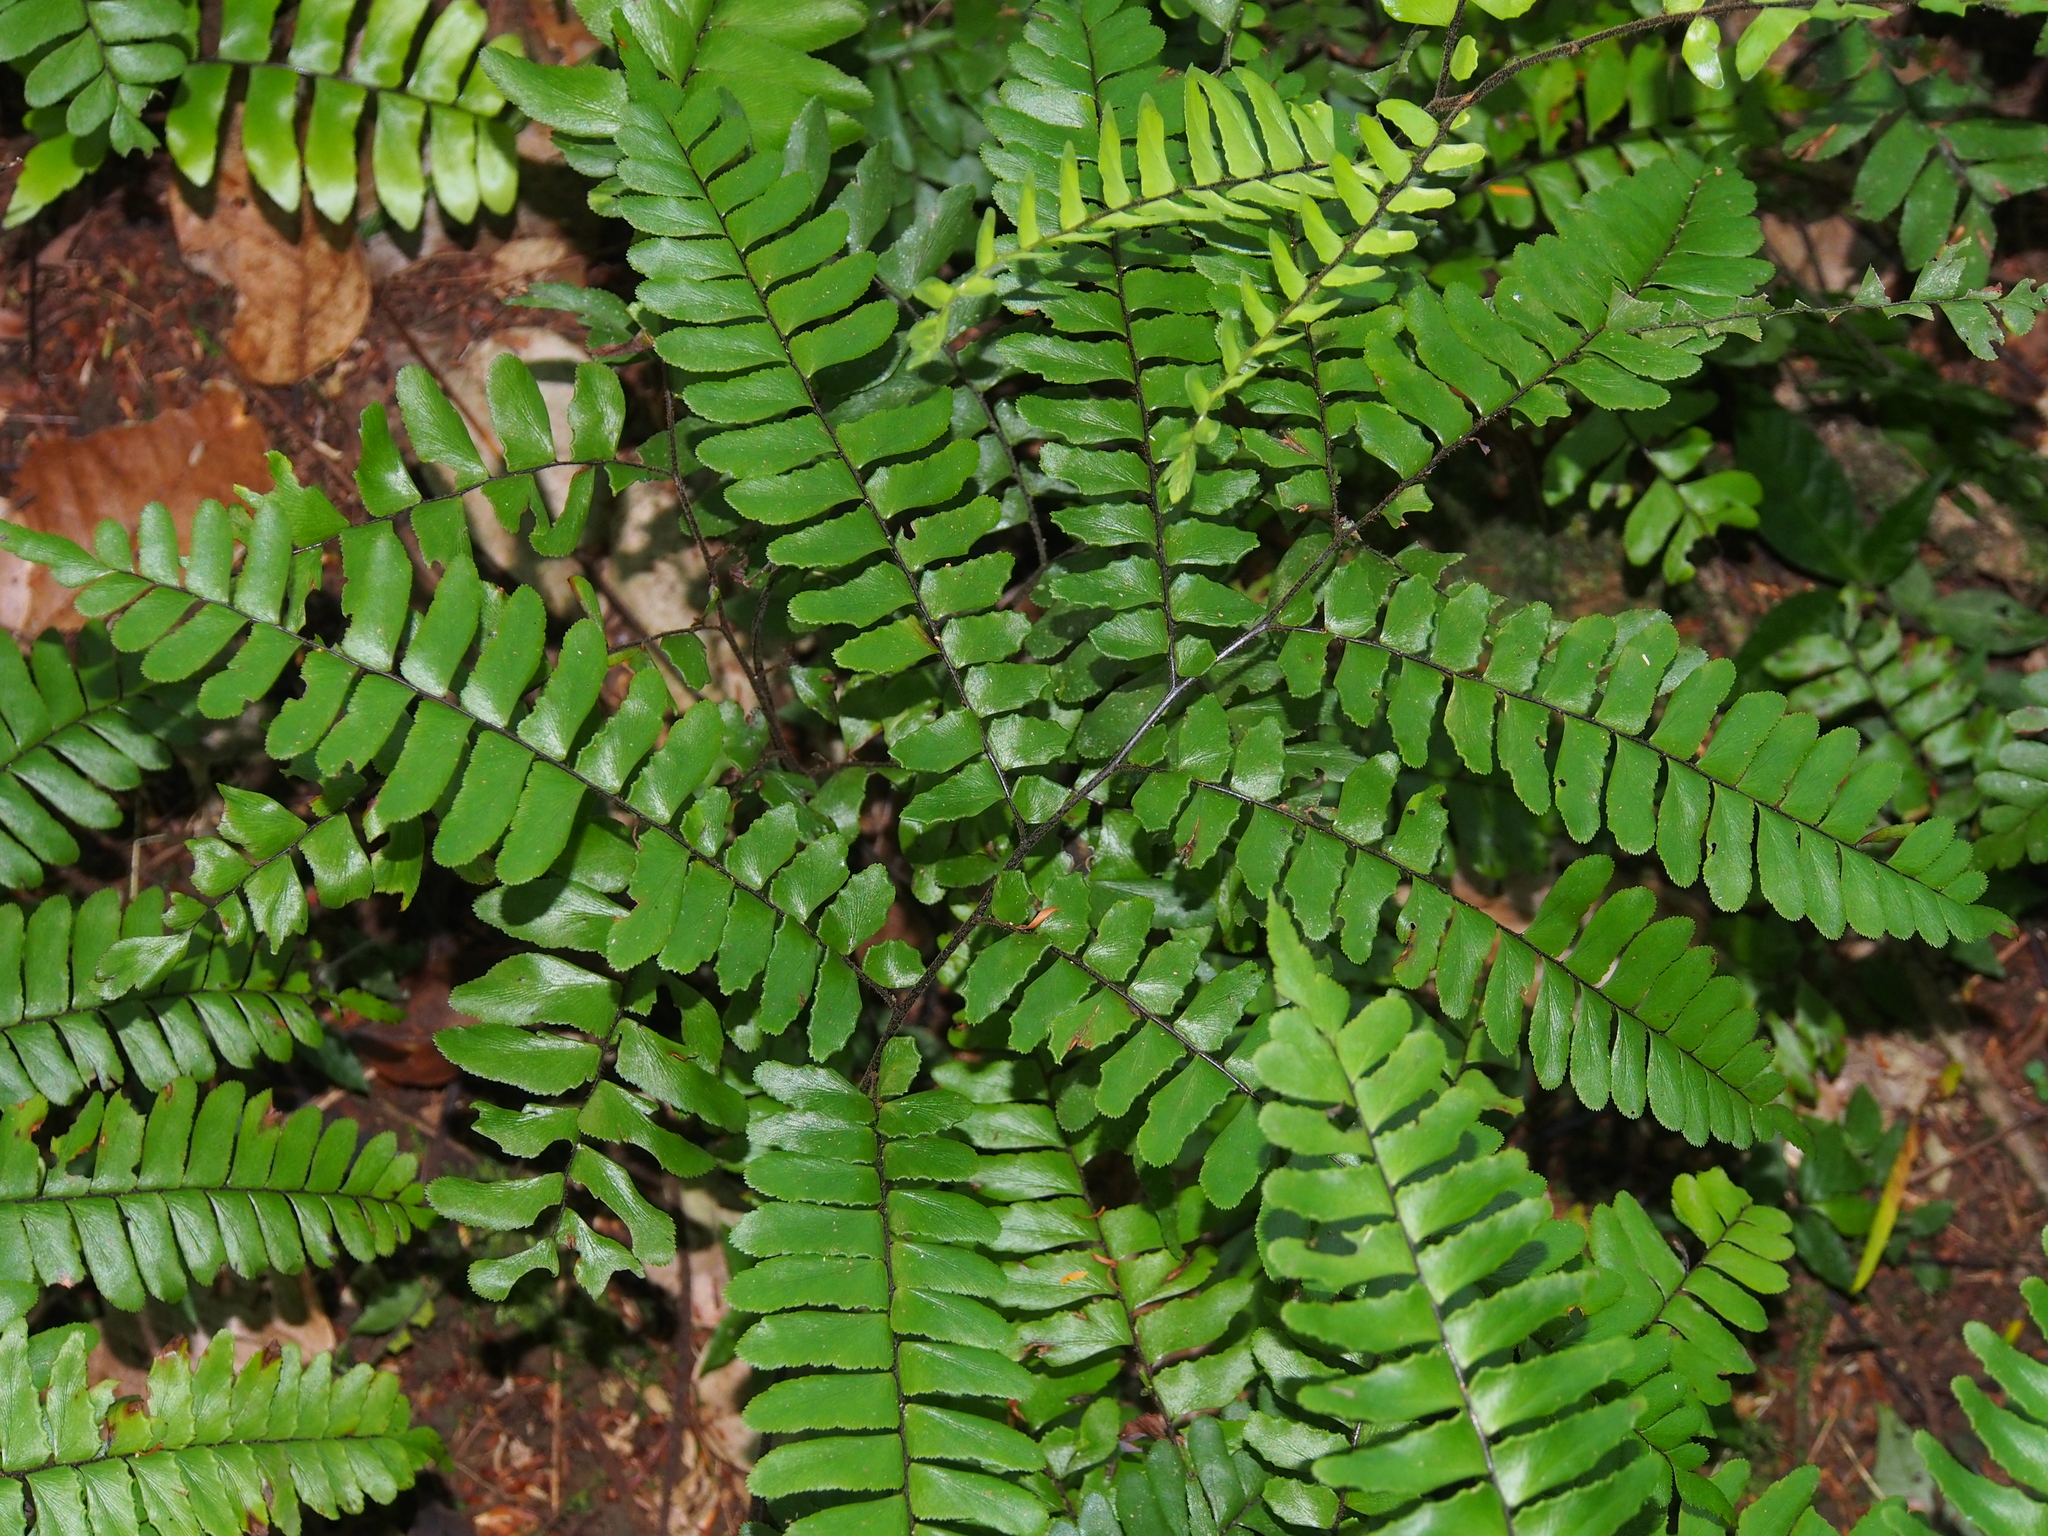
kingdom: Plantae
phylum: Tracheophyta
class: Polypodiopsida
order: Polypodiales
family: Pteridaceae
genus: Adiantum
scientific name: Adiantum latifolium
